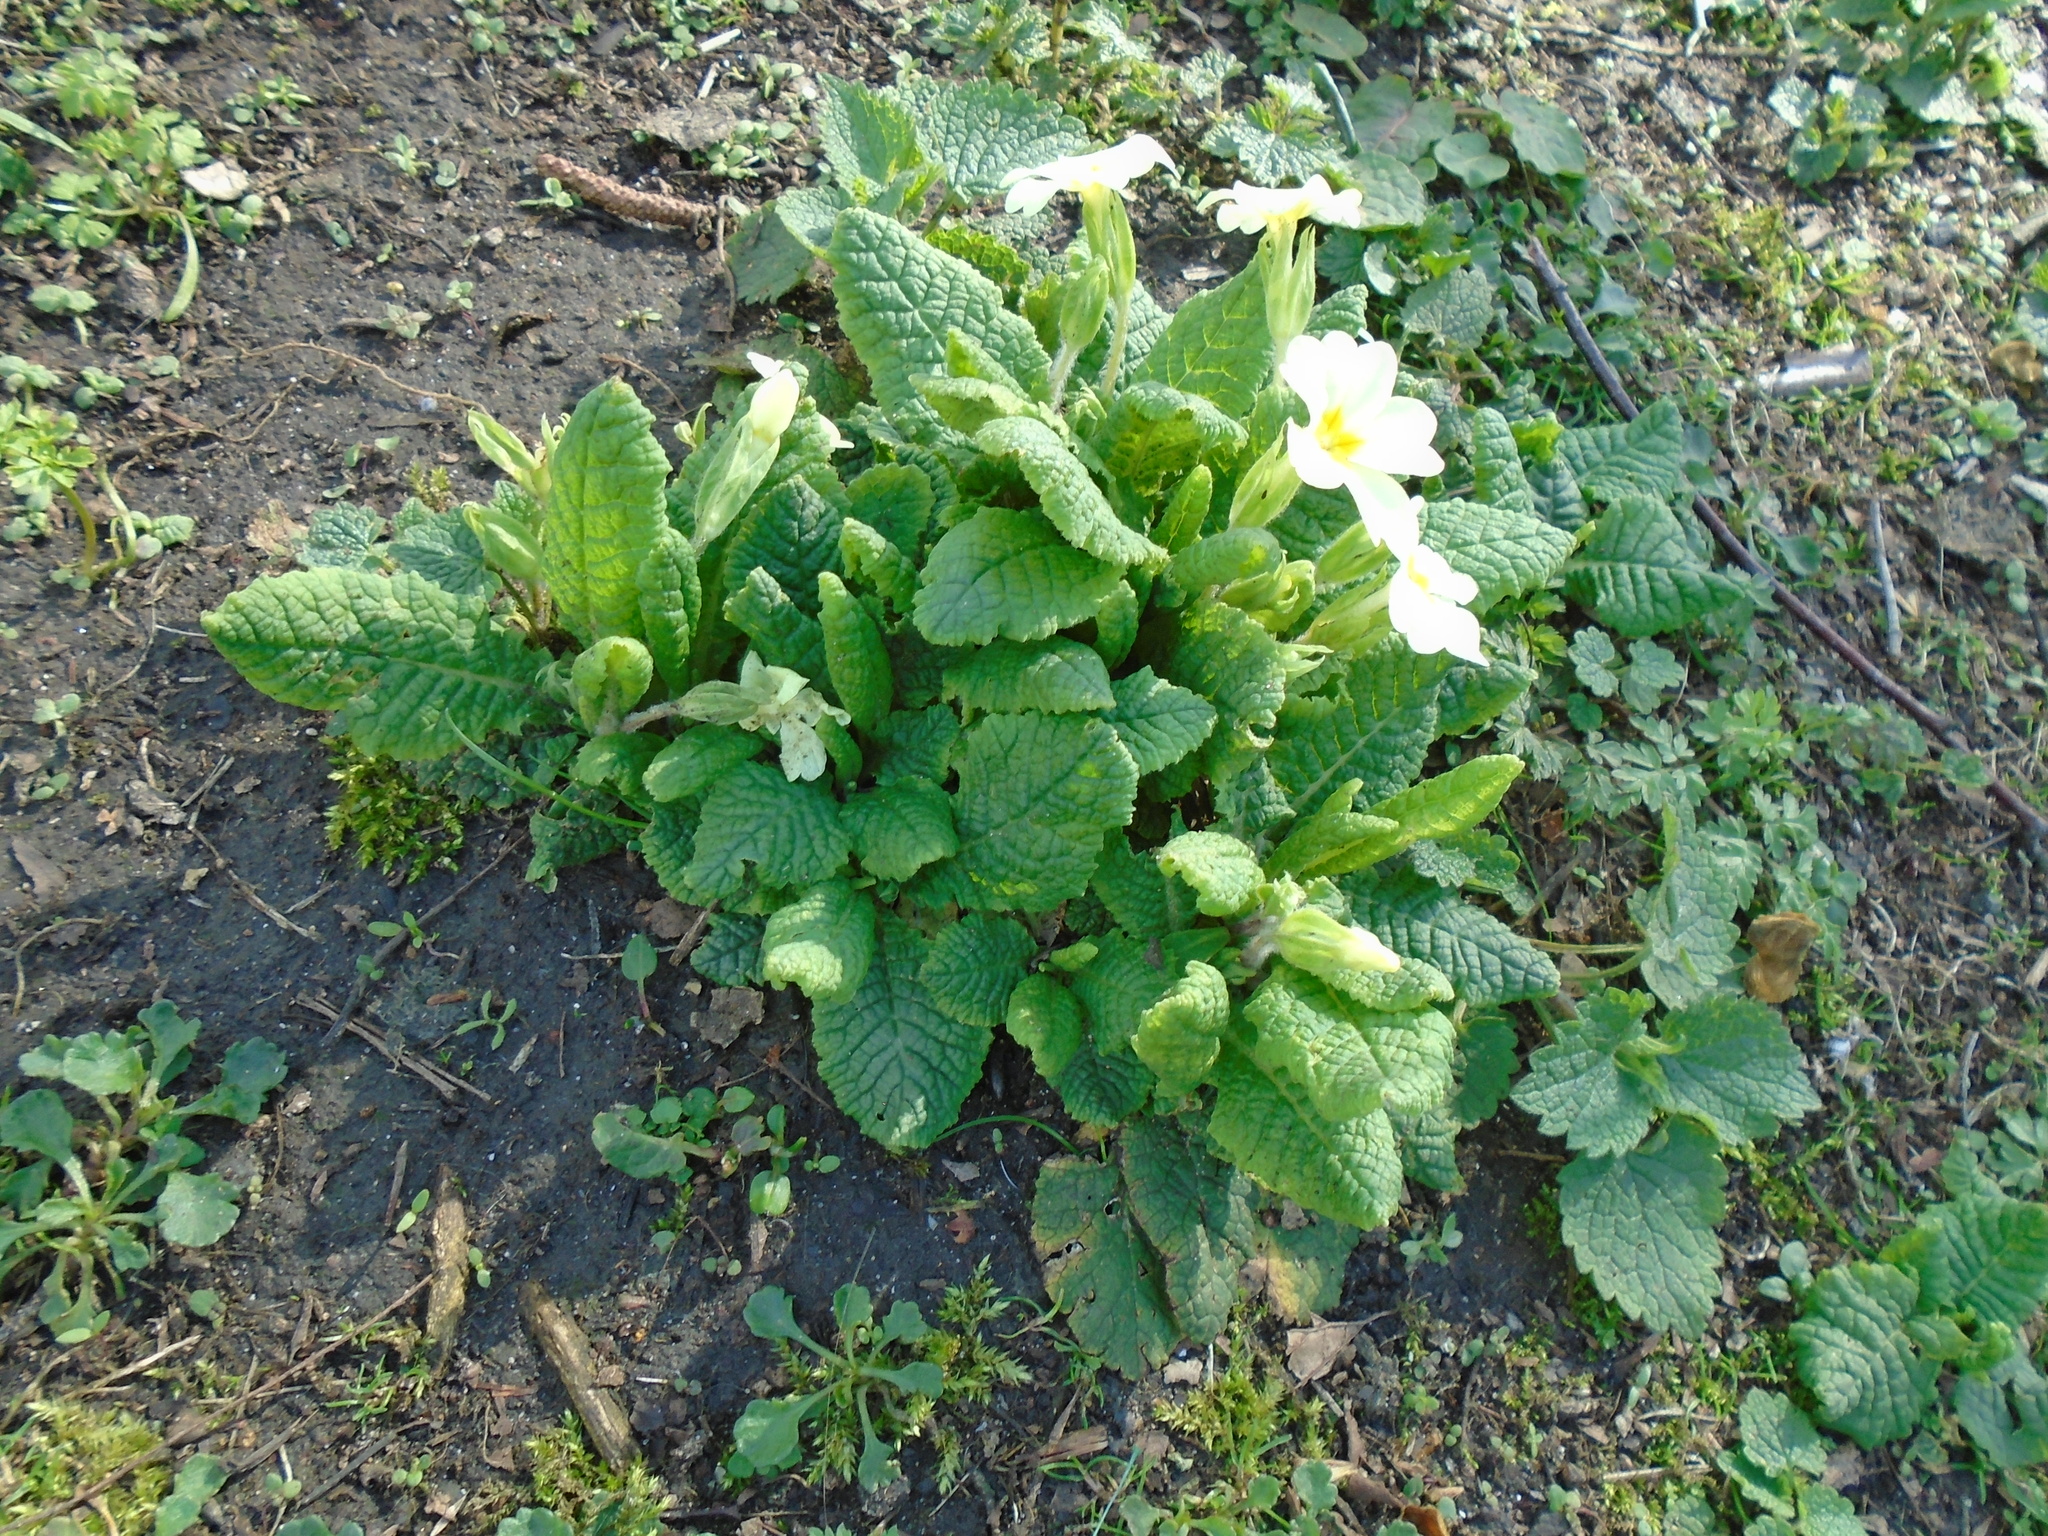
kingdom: Plantae
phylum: Tracheophyta
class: Magnoliopsida
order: Ericales
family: Primulaceae
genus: Primula
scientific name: Primula vulgaris
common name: Primrose
